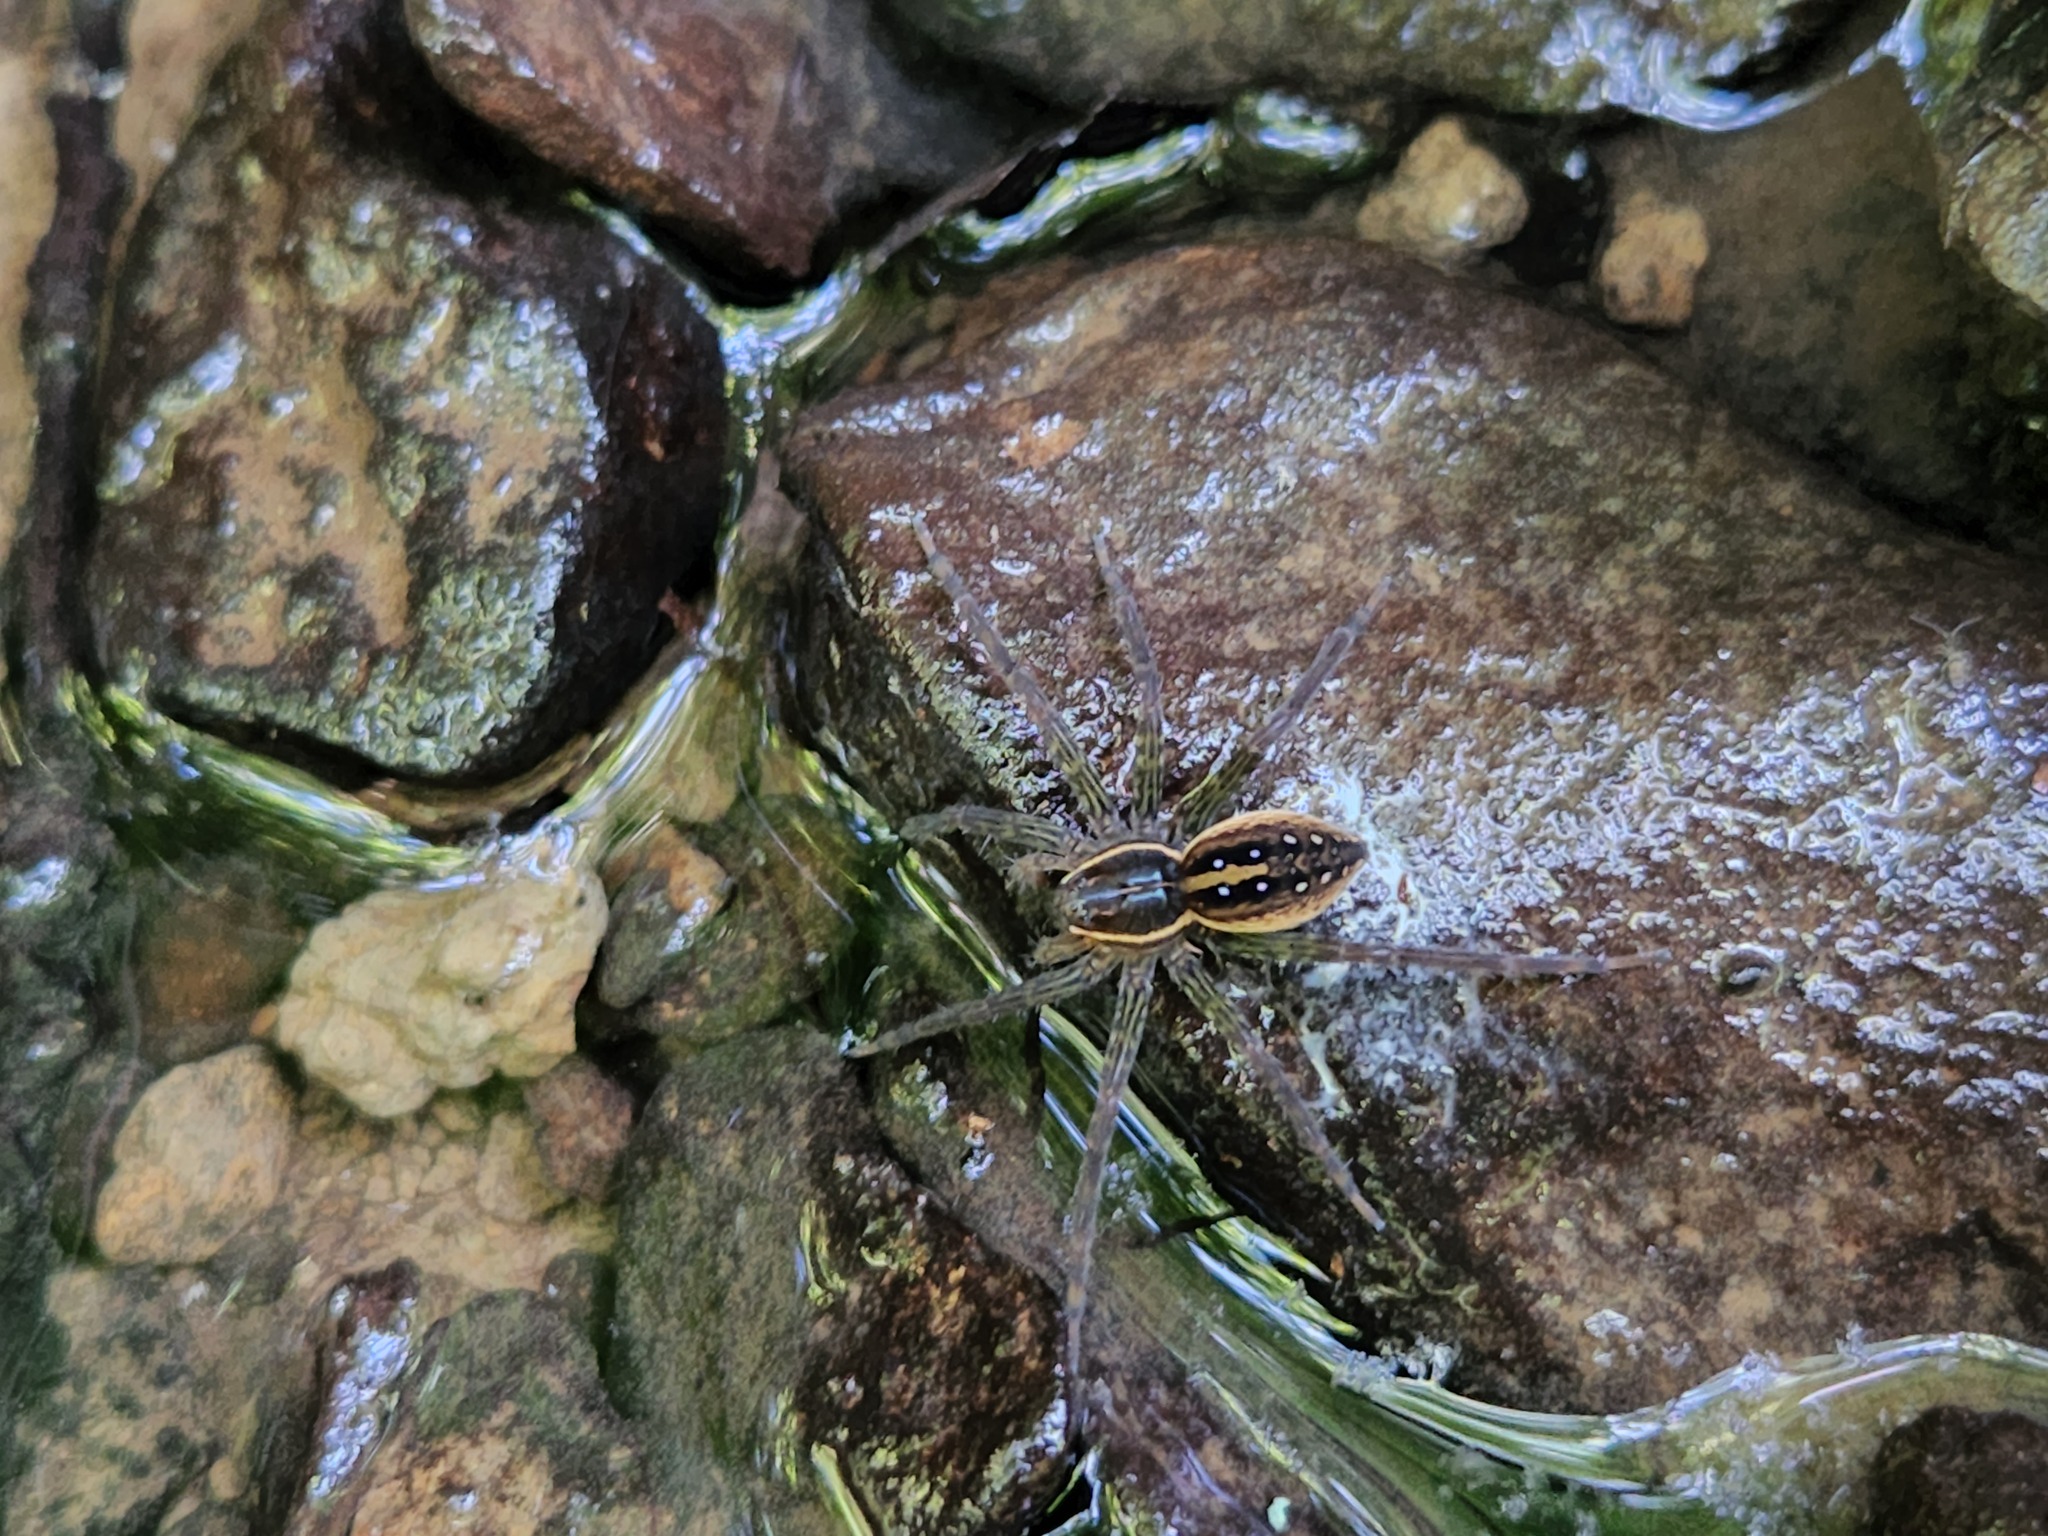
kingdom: Animalia
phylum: Arthropoda
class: Arachnida
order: Araneae
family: Pisauridae
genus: Dolomedes
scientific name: Dolomedes triton
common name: Six-spotted fishing spider
